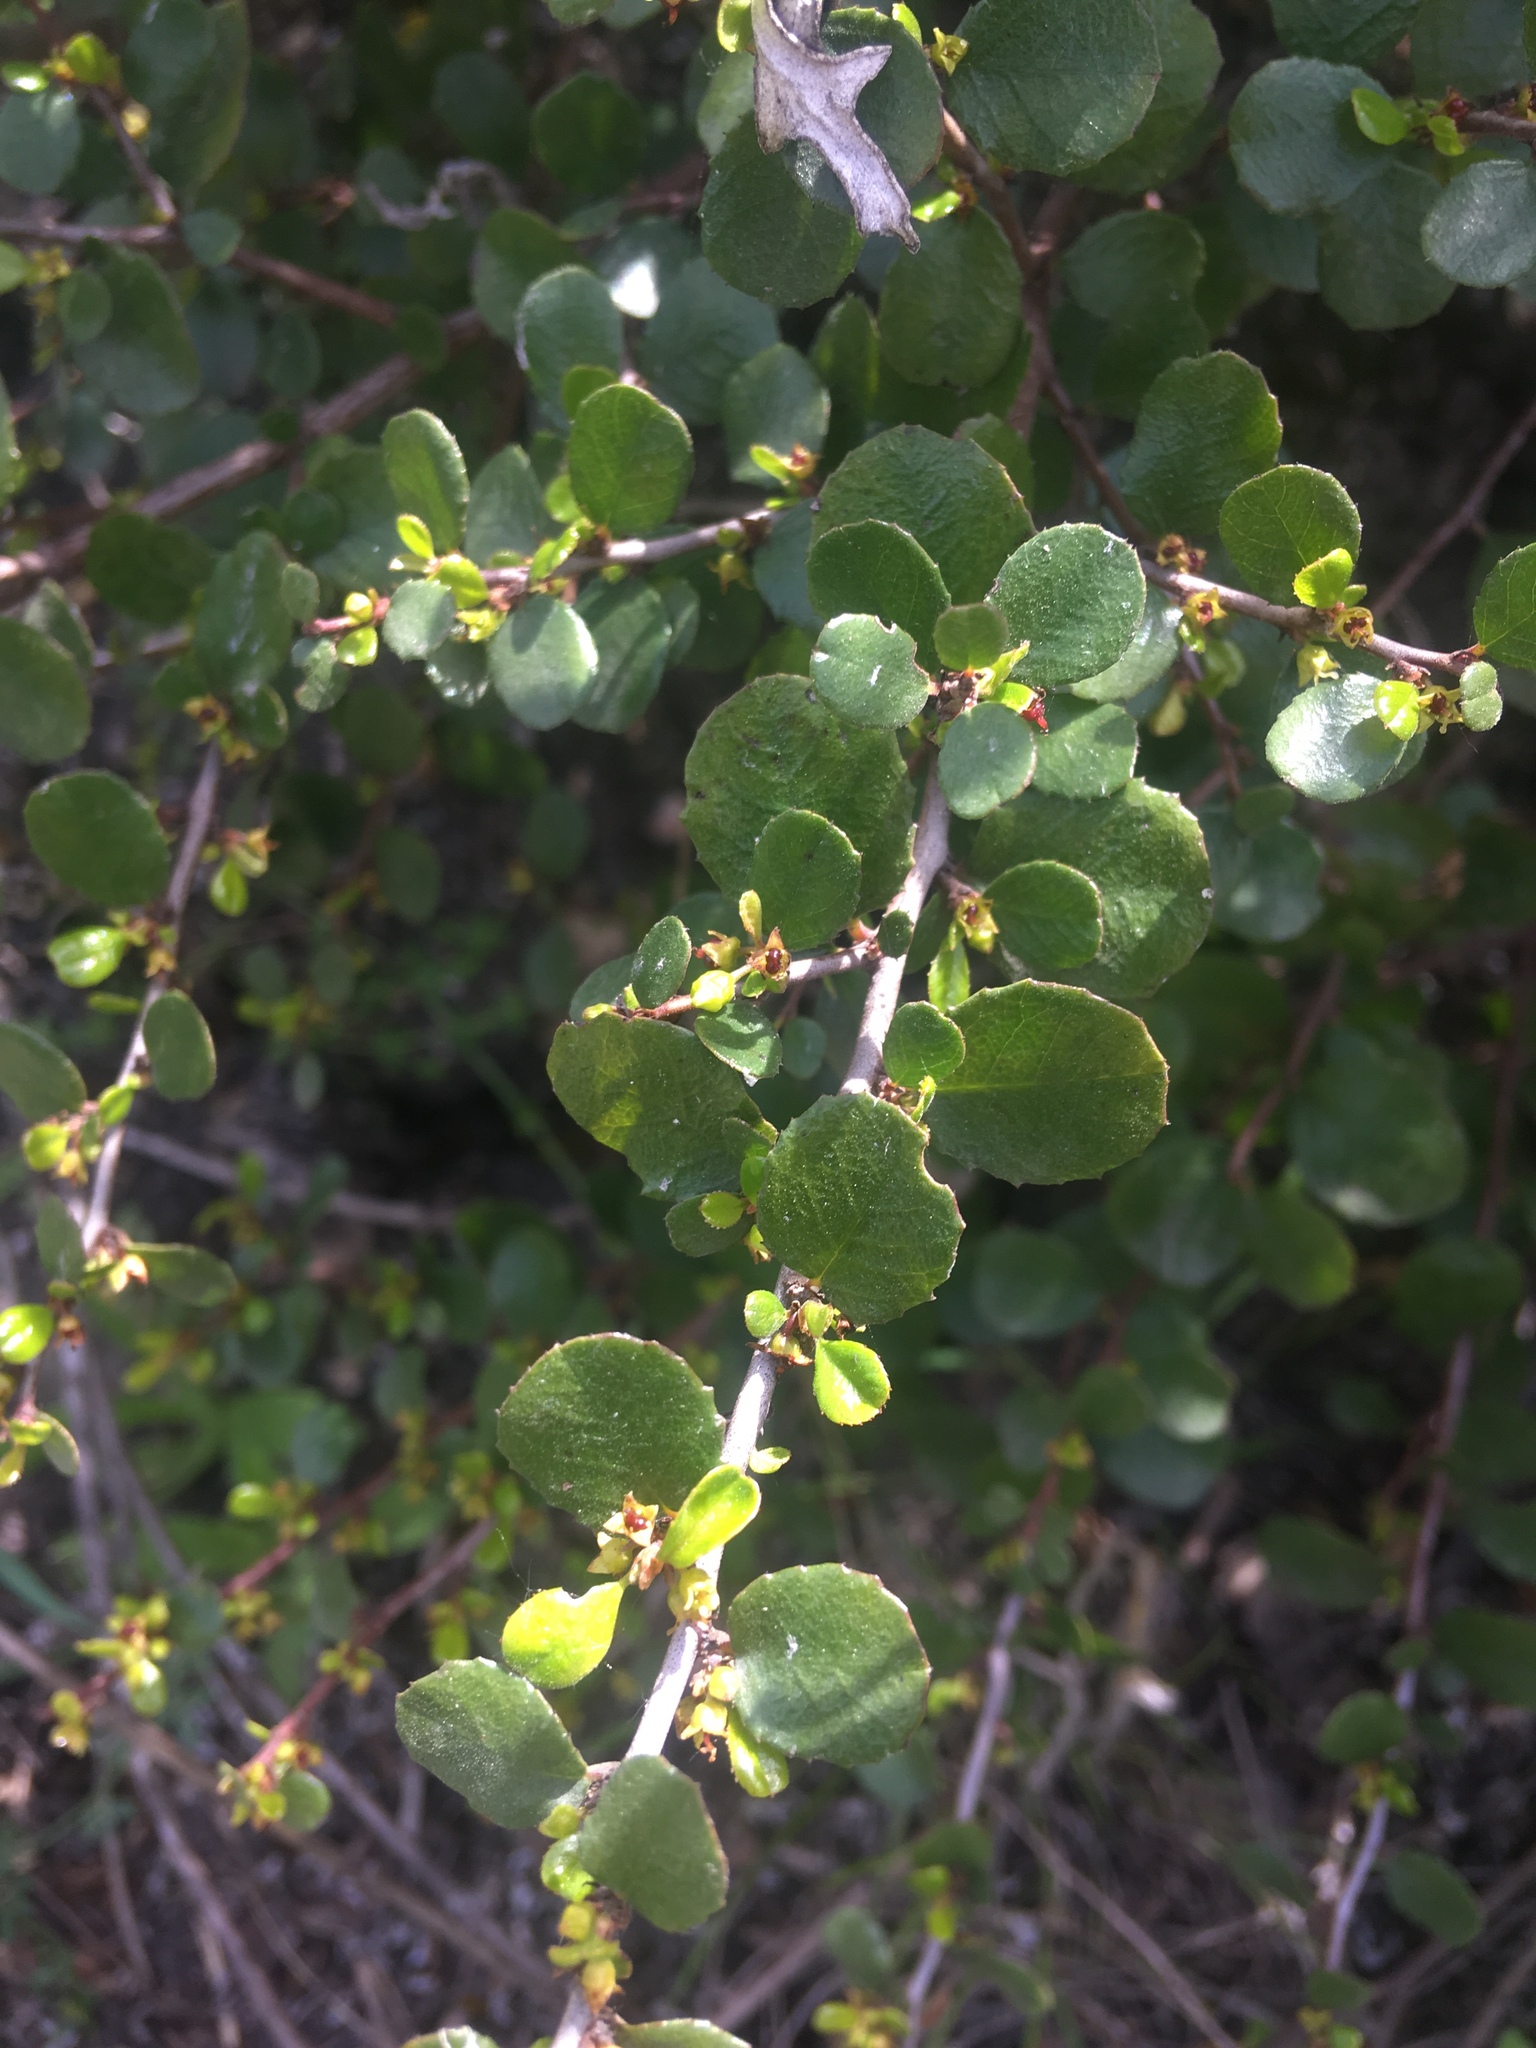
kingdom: Plantae
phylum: Tracheophyta
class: Magnoliopsida
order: Rosales
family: Rhamnaceae
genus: Endotropis
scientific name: Endotropis crocea
